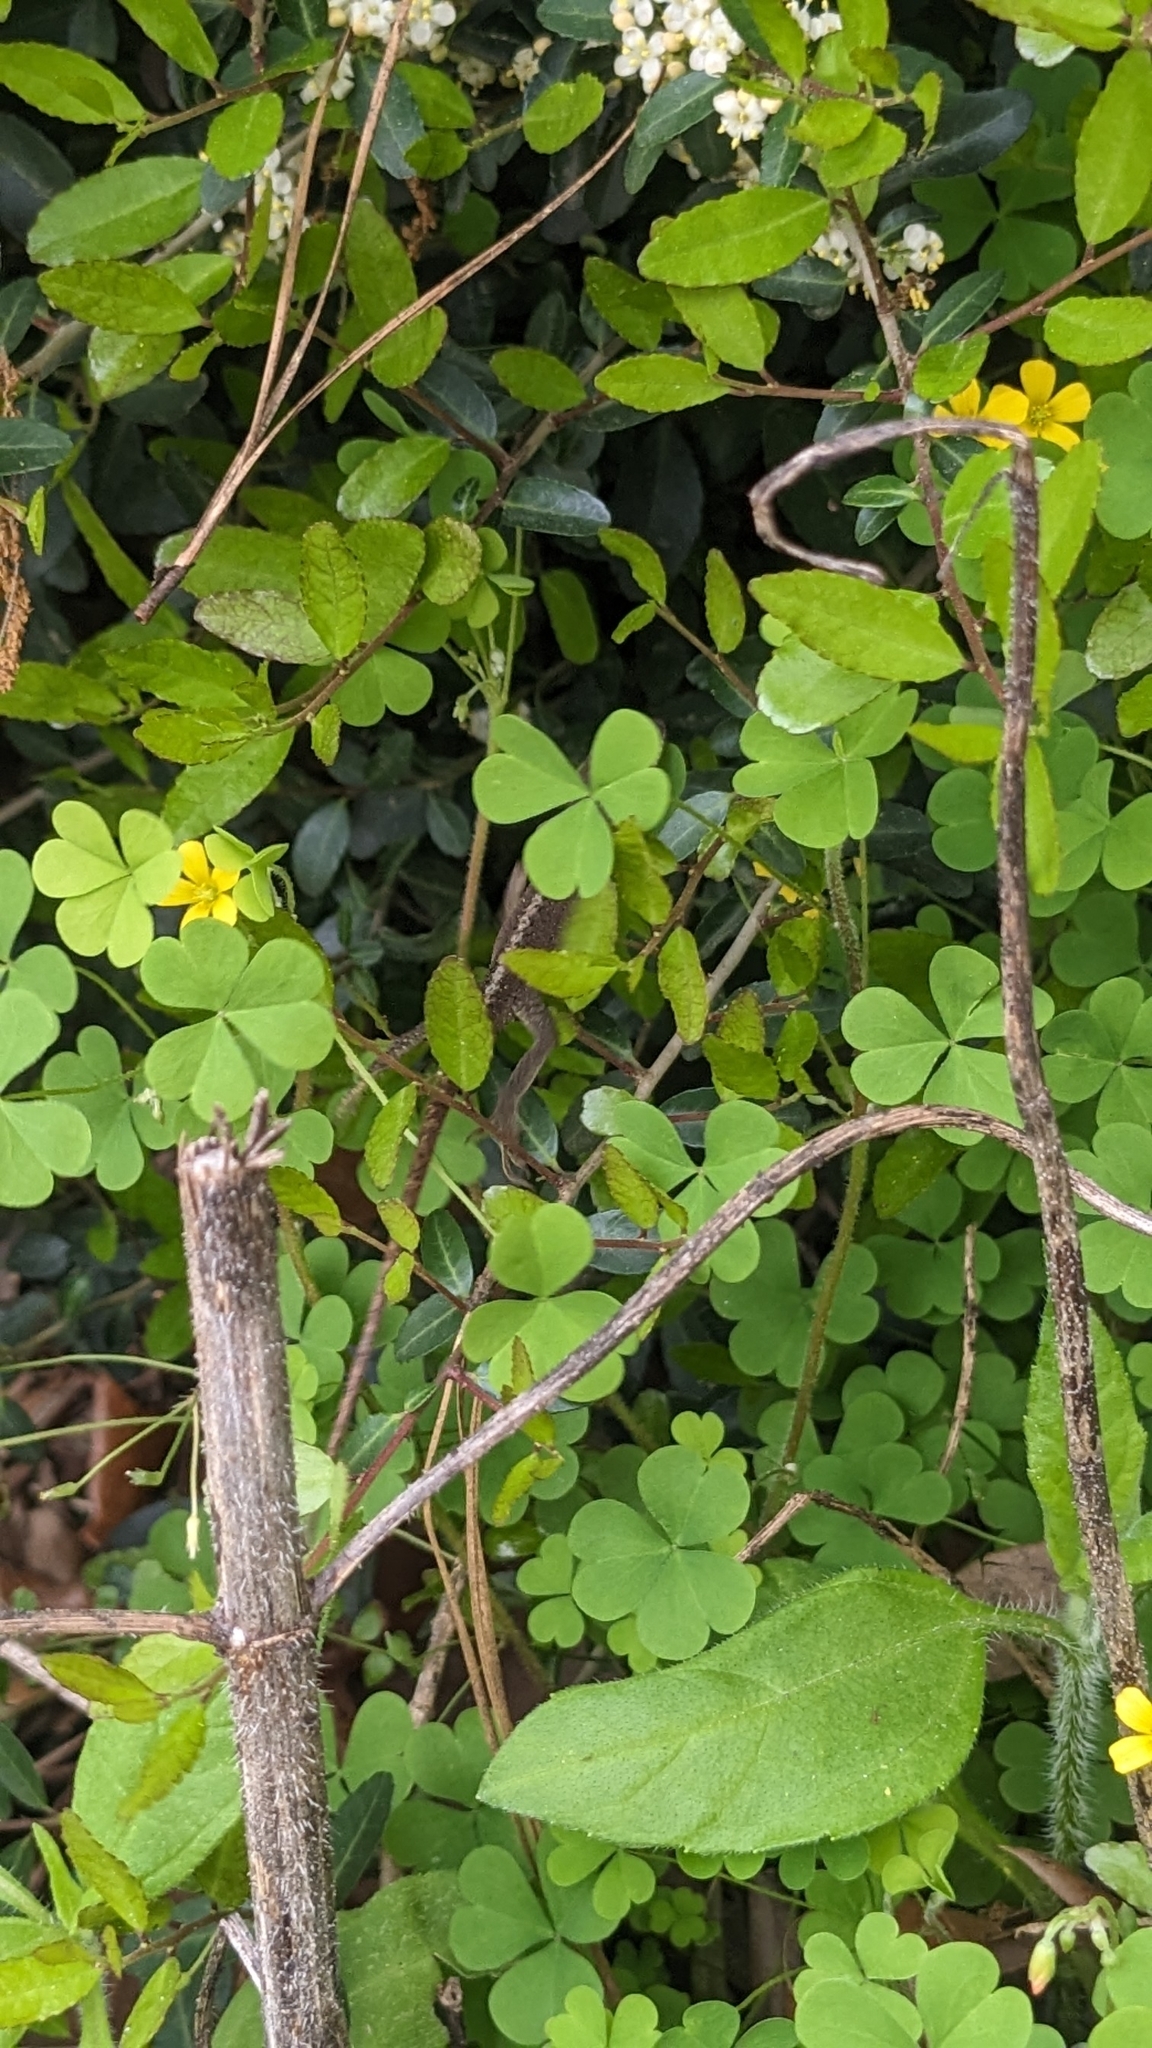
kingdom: Animalia
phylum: Chordata
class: Squamata
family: Dactyloidae
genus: Anolis
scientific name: Anolis carolinensis
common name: Green anole
